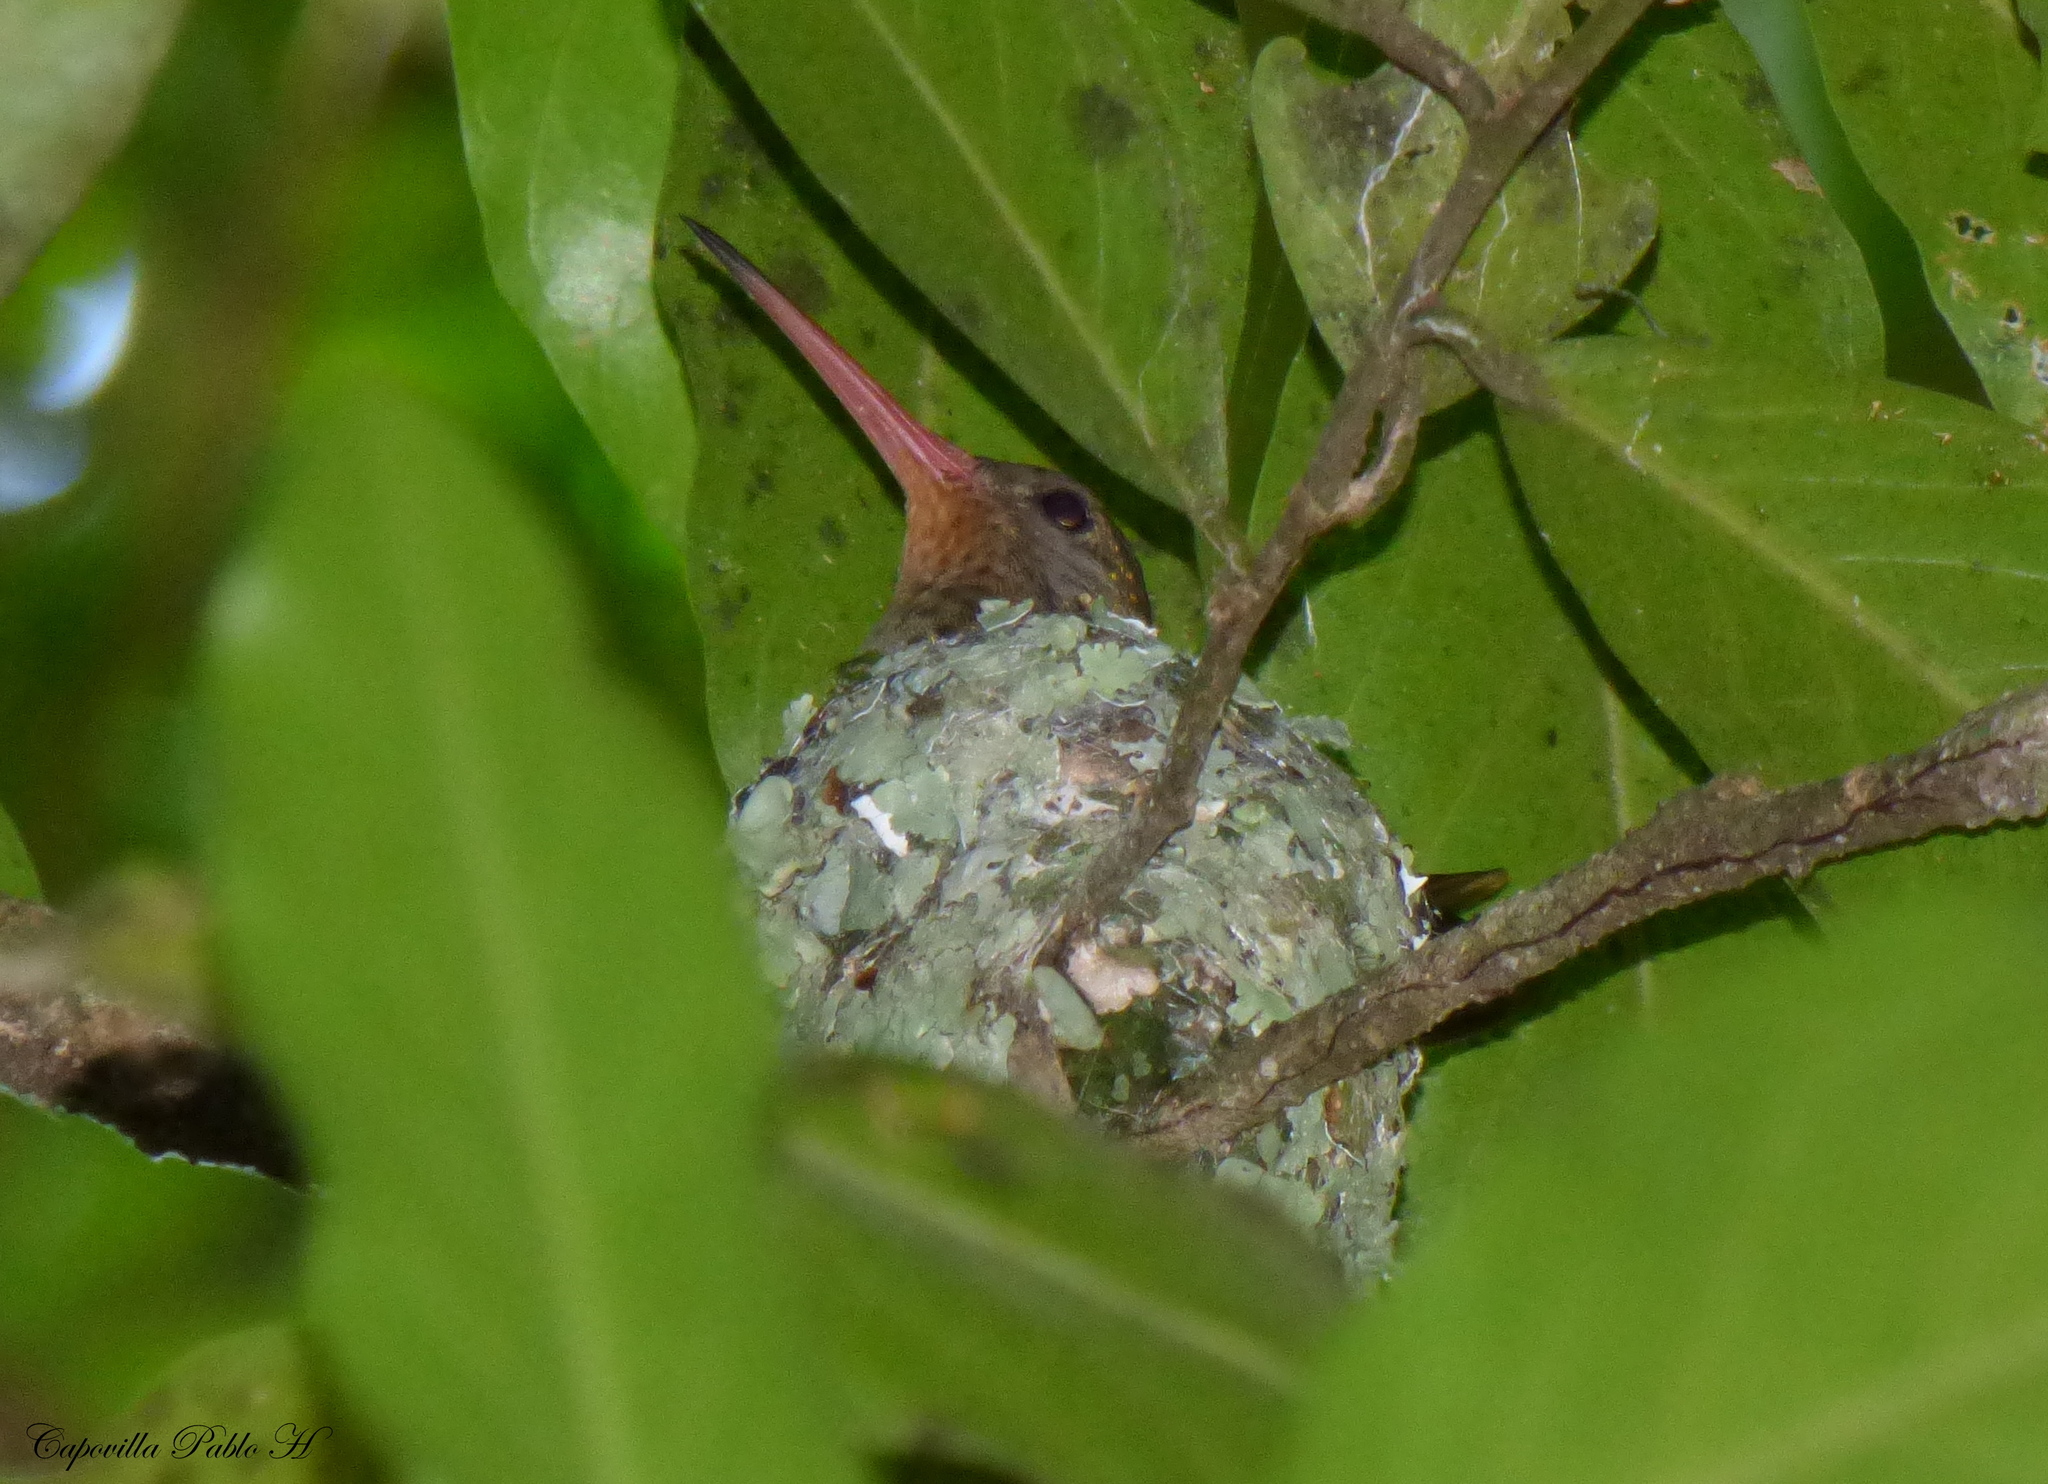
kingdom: Animalia
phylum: Chordata
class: Aves
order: Apodiformes
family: Trochilidae
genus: Hylocharis
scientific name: Hylocharis chrysura
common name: Gilded sapphire
